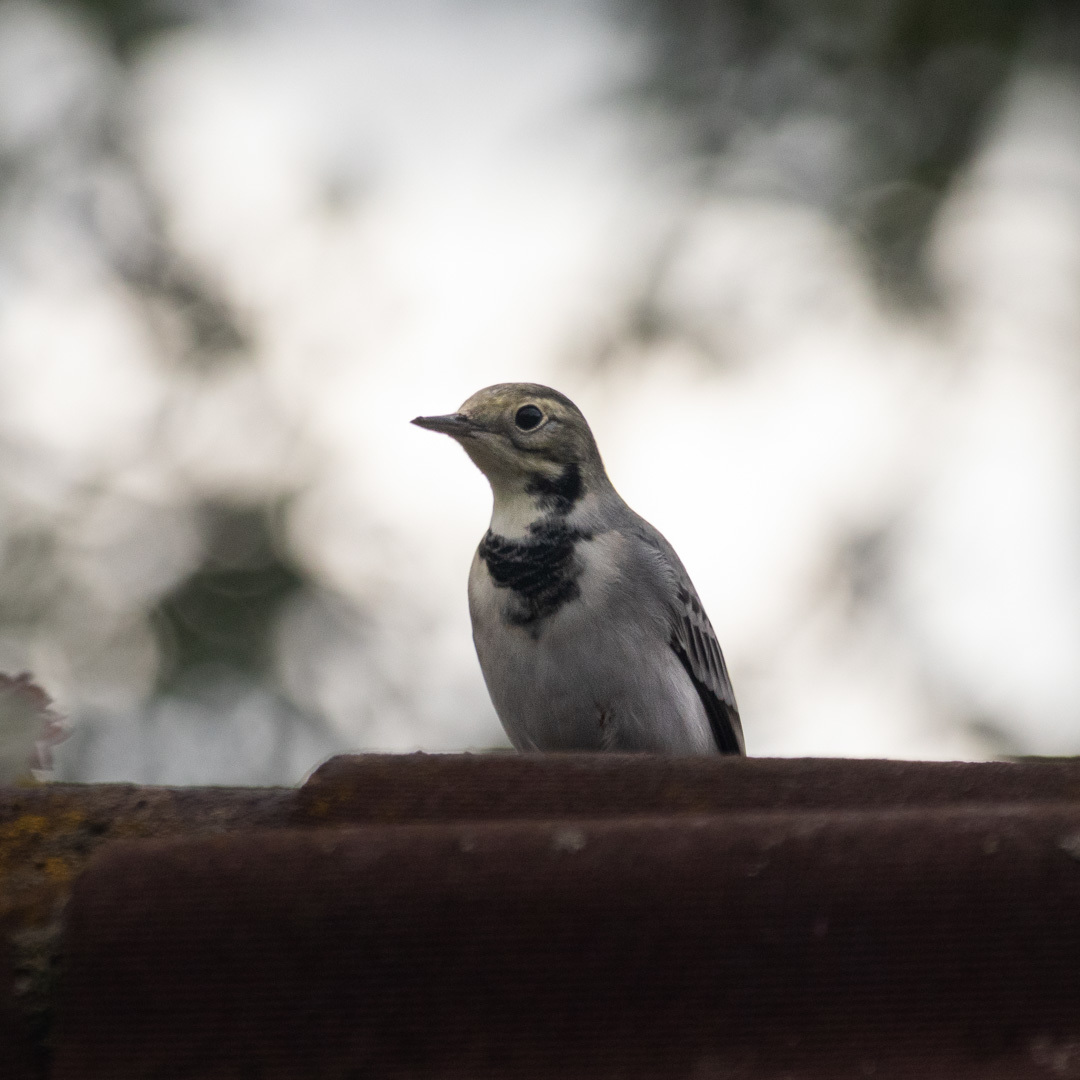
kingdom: Animalia
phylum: Chordata
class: Aves
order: Passeriformes
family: Motacillidae
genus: Motacilla
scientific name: Motacilla alba
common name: White wagtail
